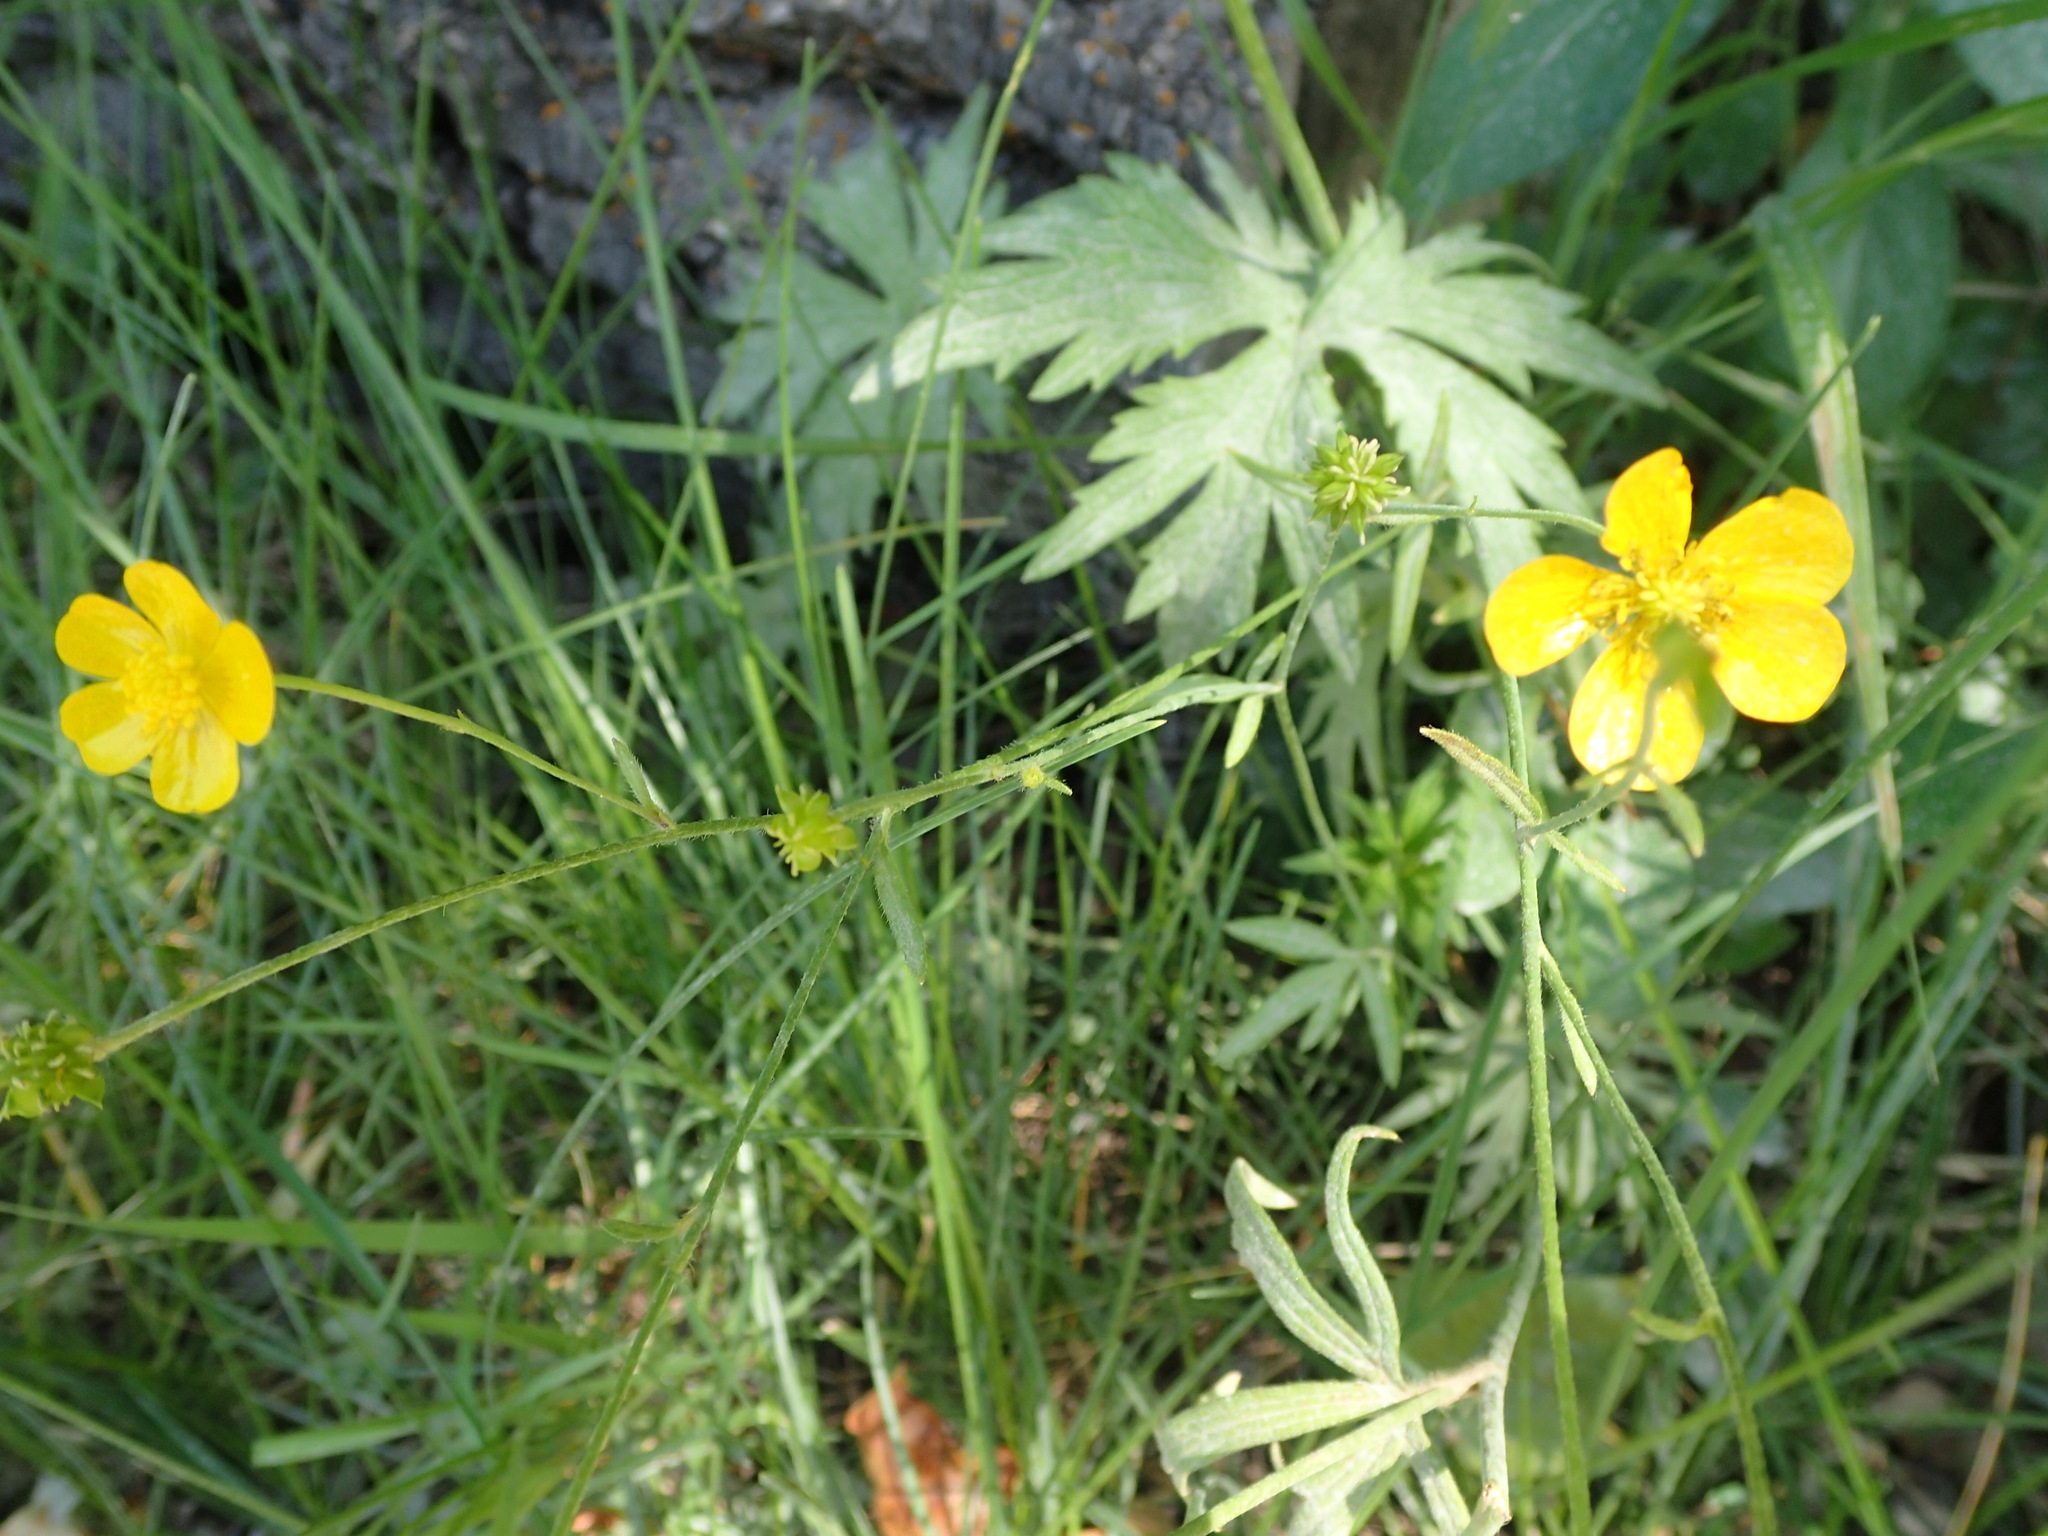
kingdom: Plantae
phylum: Tracheophyta
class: Magnoliopsida
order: Ranunculales
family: Ranunculaceae
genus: Ranunculus
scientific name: Ranunculus acris
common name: Meadow buttercup
